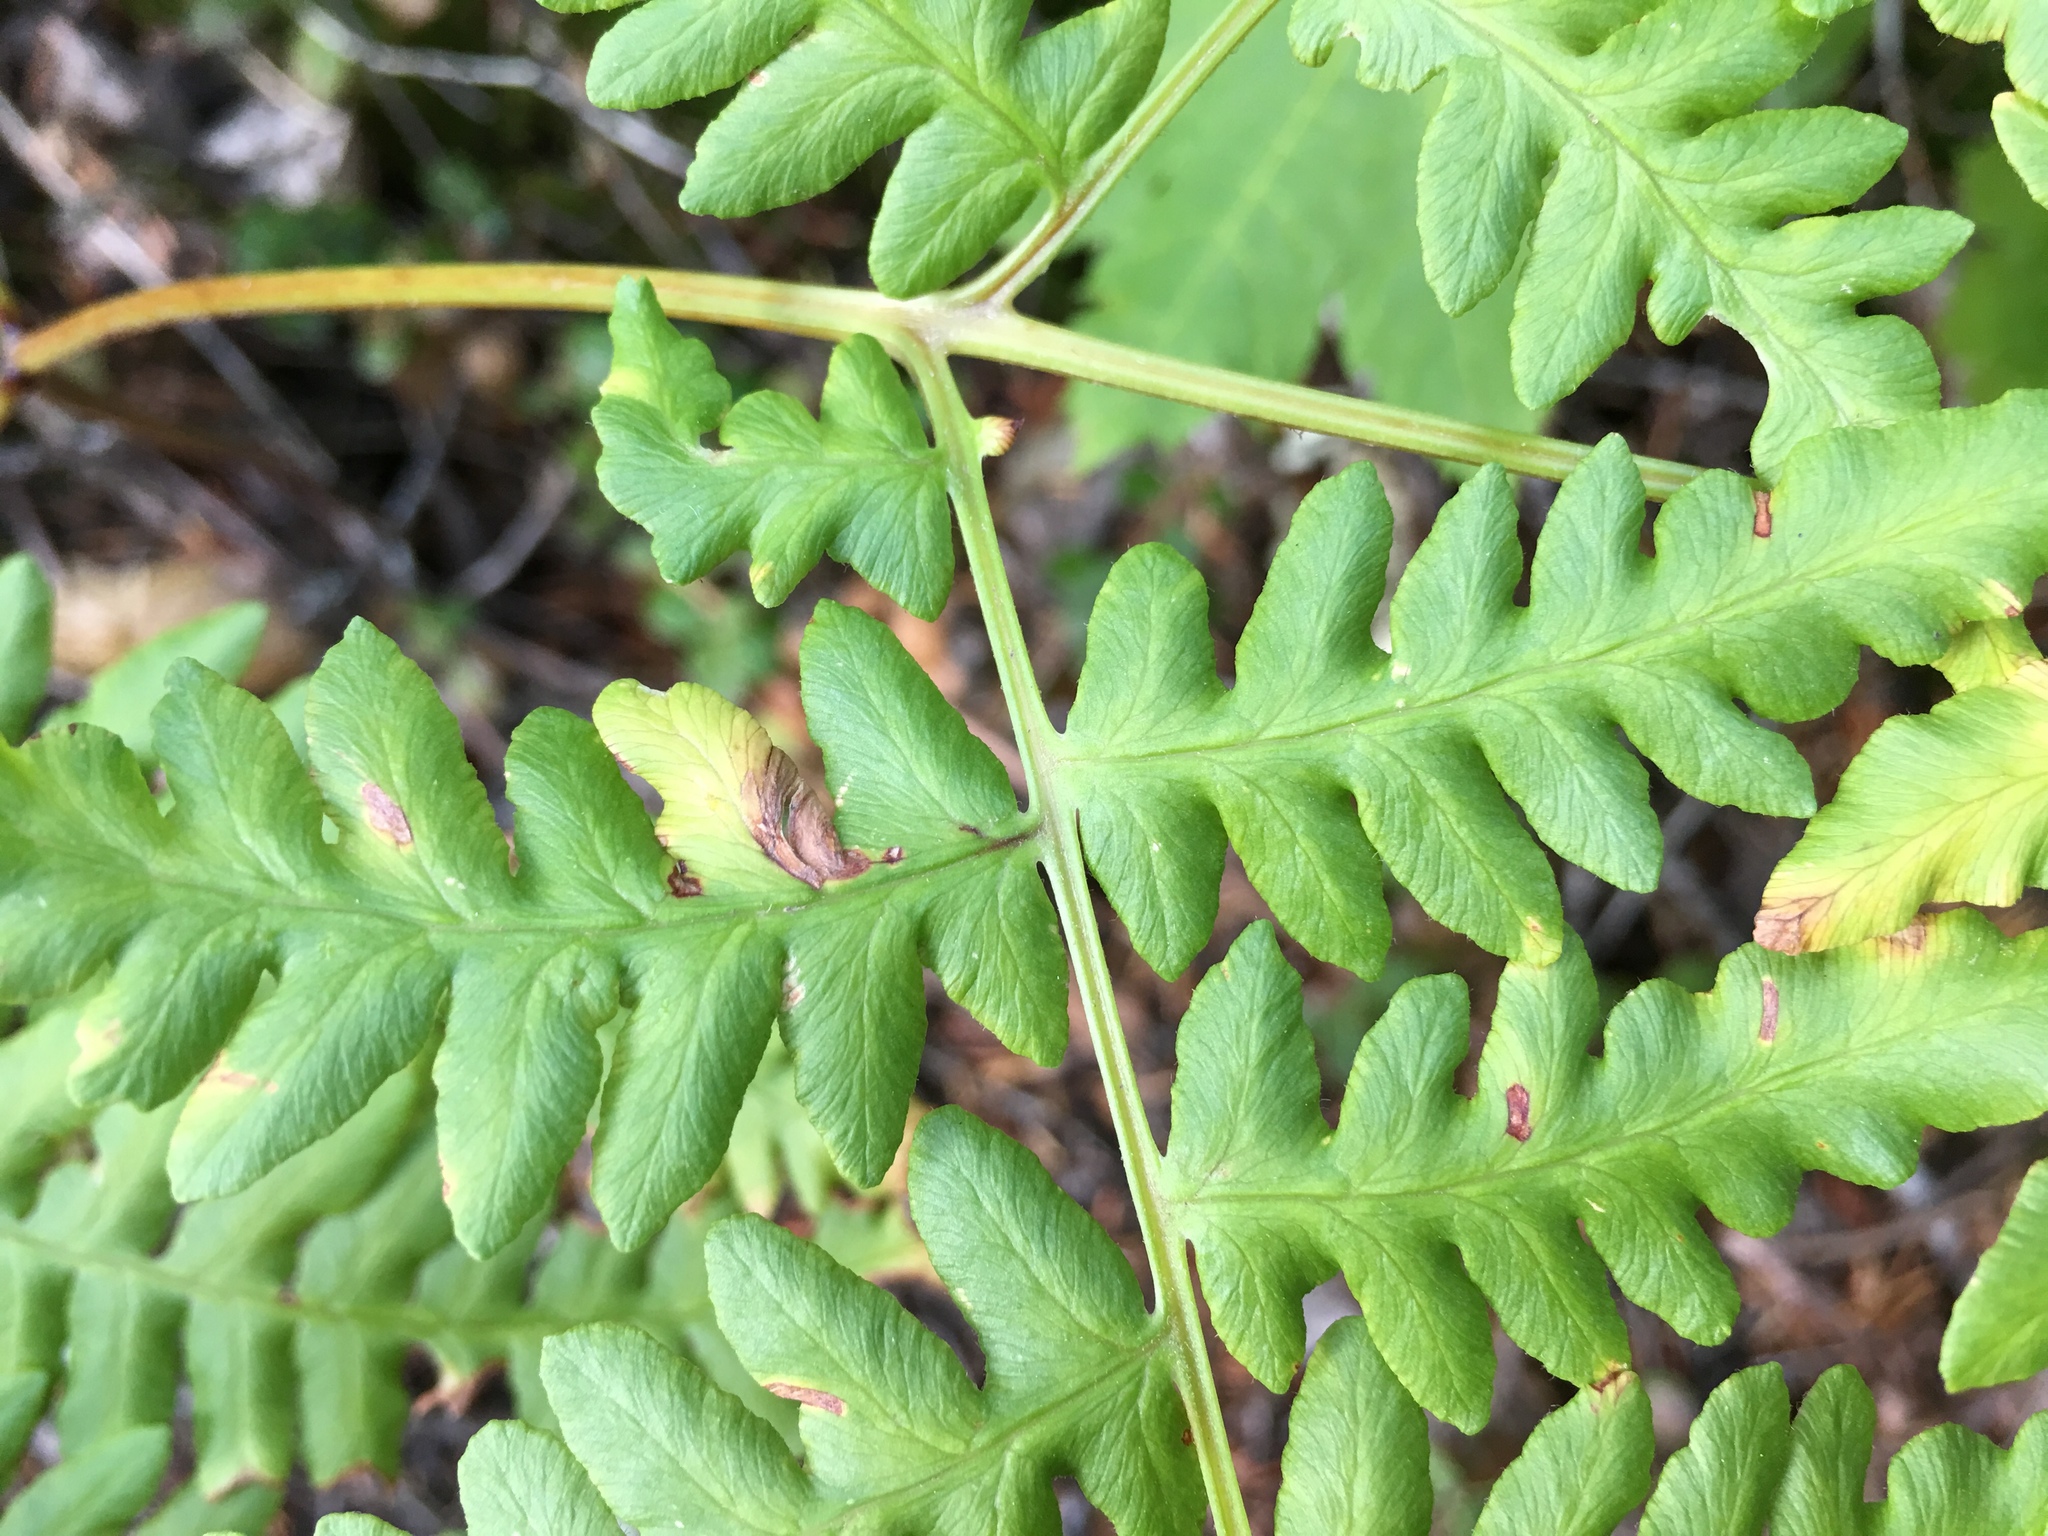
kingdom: Plantae
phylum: Tracheophyta
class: Polypodiopsida
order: Polypodiales
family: Dennstaedtiaceae
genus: Pteridium
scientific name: Pteridium aquilinum
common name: Bracken
